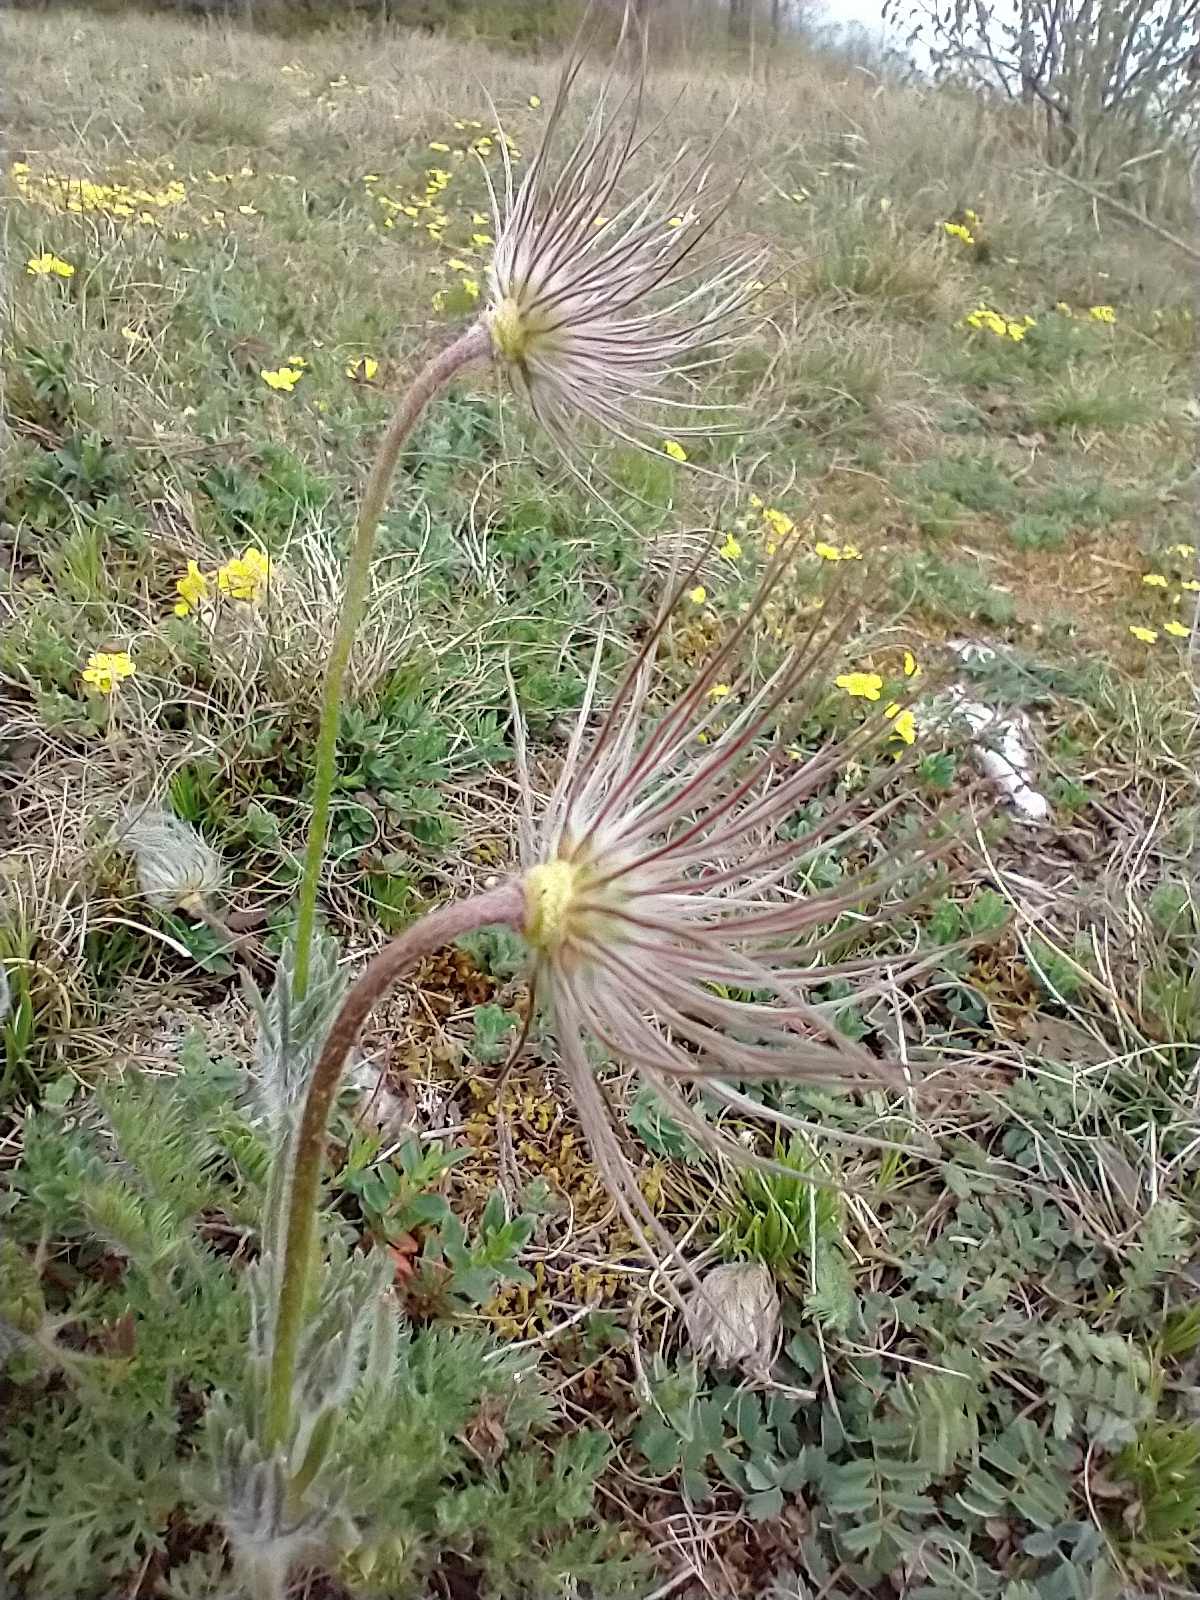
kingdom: Plantae
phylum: Tracheophyta
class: Magnoliopsida
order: Ranunculales
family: Ranunculaceae
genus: Pulsatilla
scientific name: Pulsatilla vulgaris
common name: Pasqueflower
